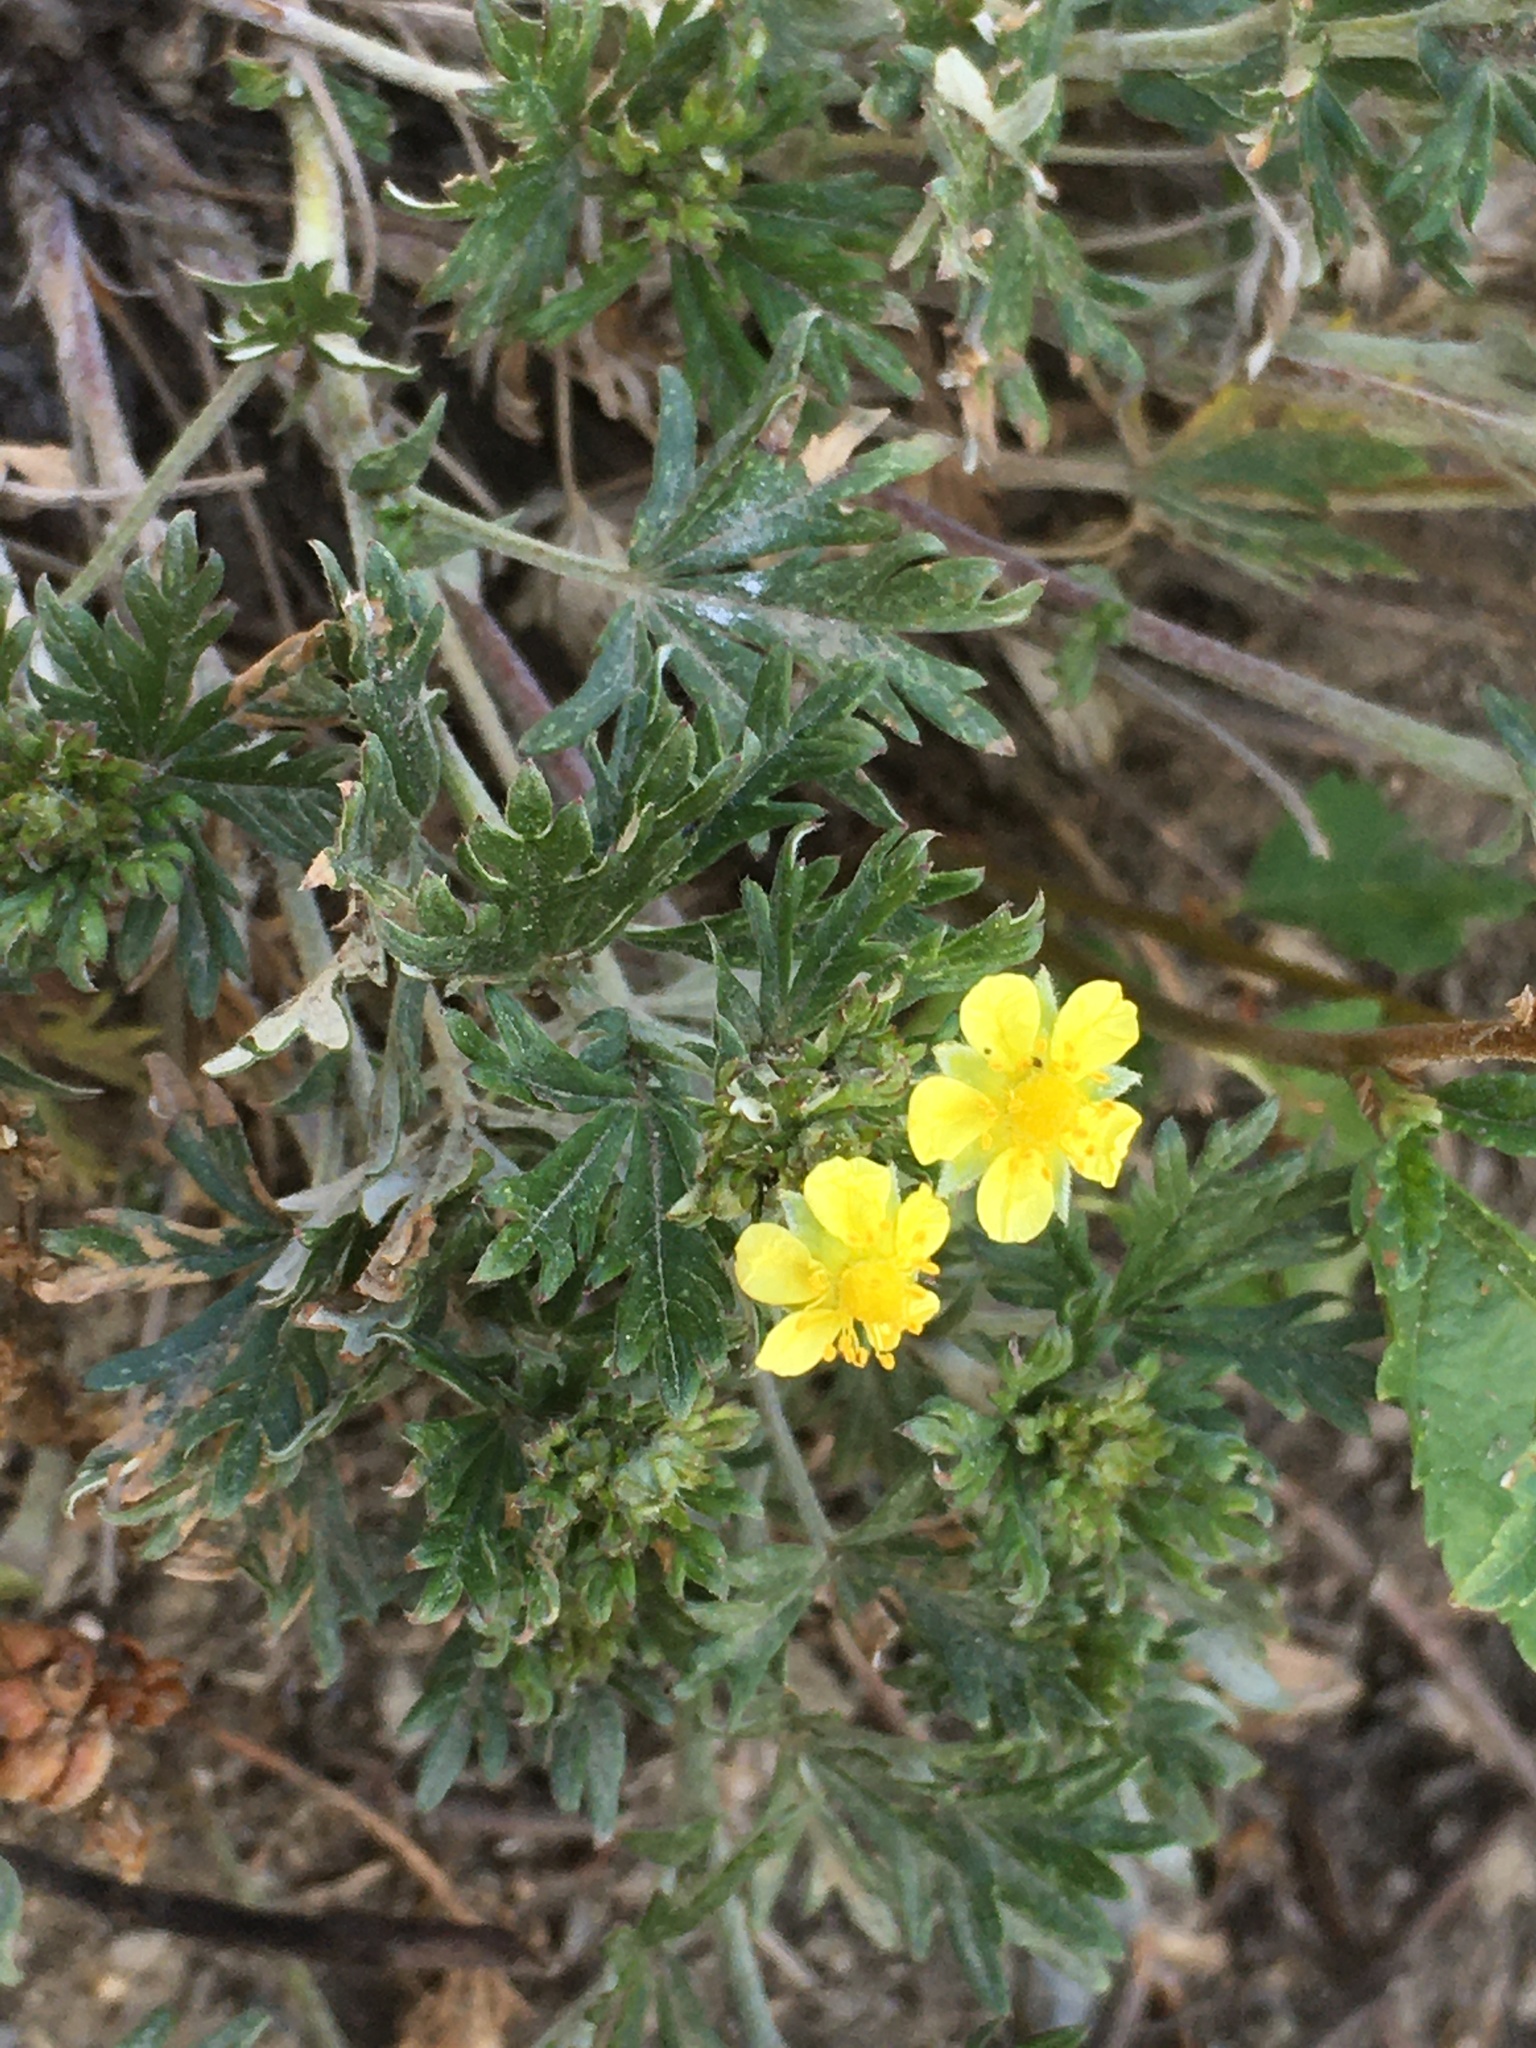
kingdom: Plantae
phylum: Tracheophyta
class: Magnoliopsida
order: Rosales
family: Rosaceae
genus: Potentilla
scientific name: Potentilla argentea
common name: Hoary cinquefoil
